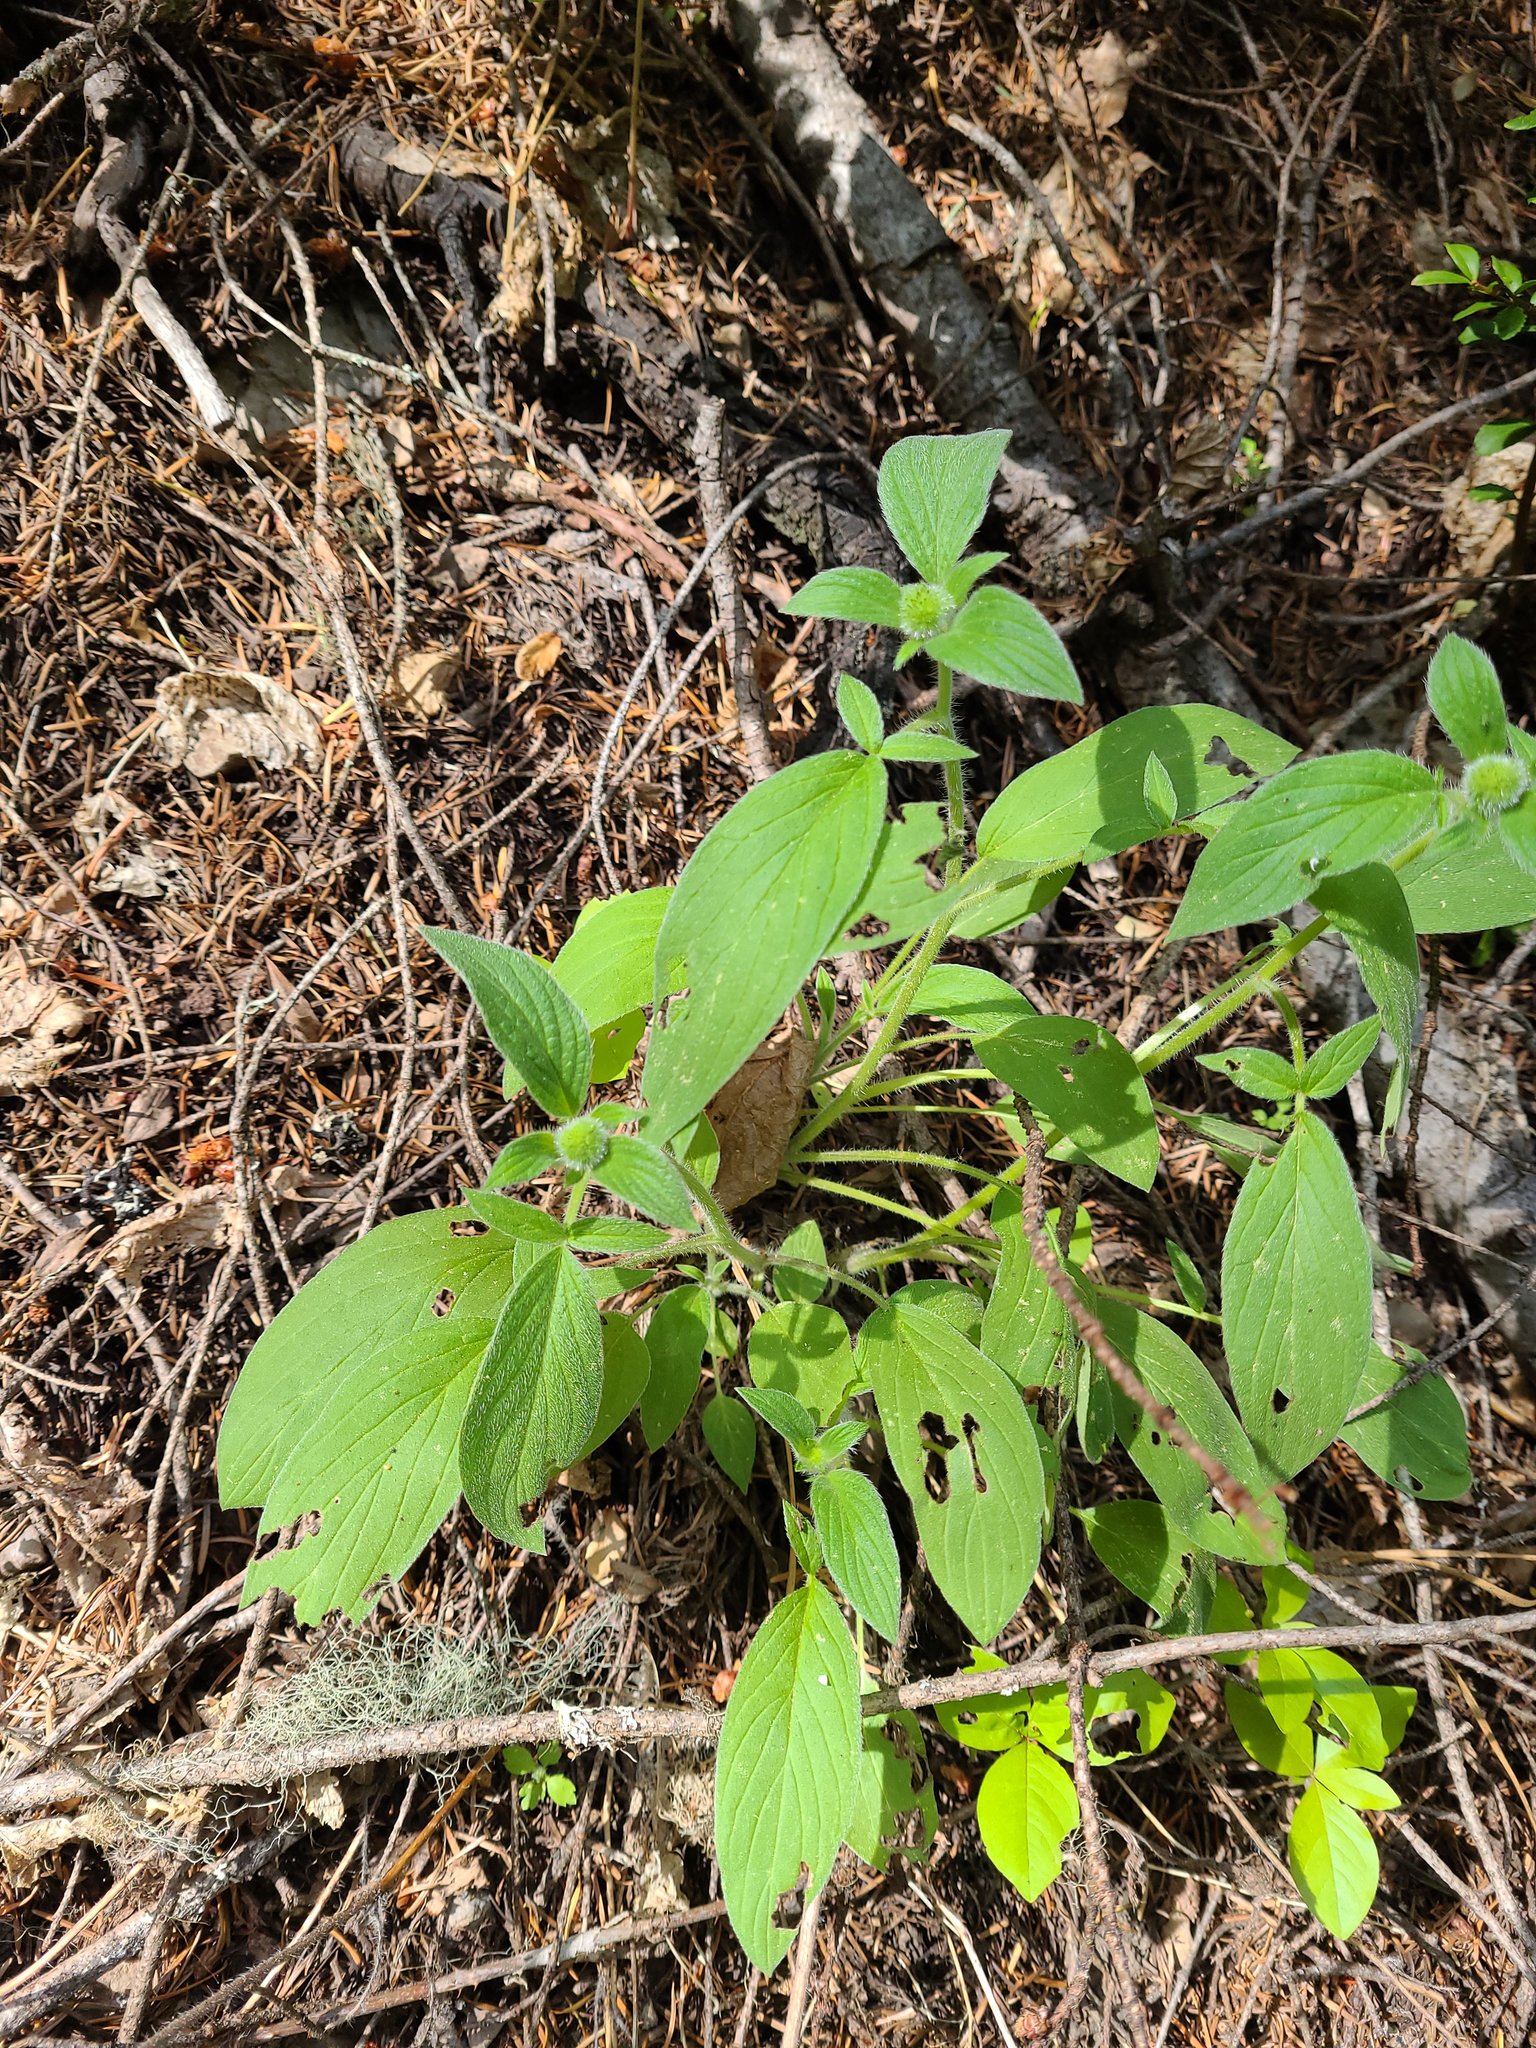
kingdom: Plantae
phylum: Tracheophyta
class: Magnoliopsida
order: Boraginales
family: Hydrophyllaceae
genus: Phacelia
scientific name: Phacelia nemoralis
